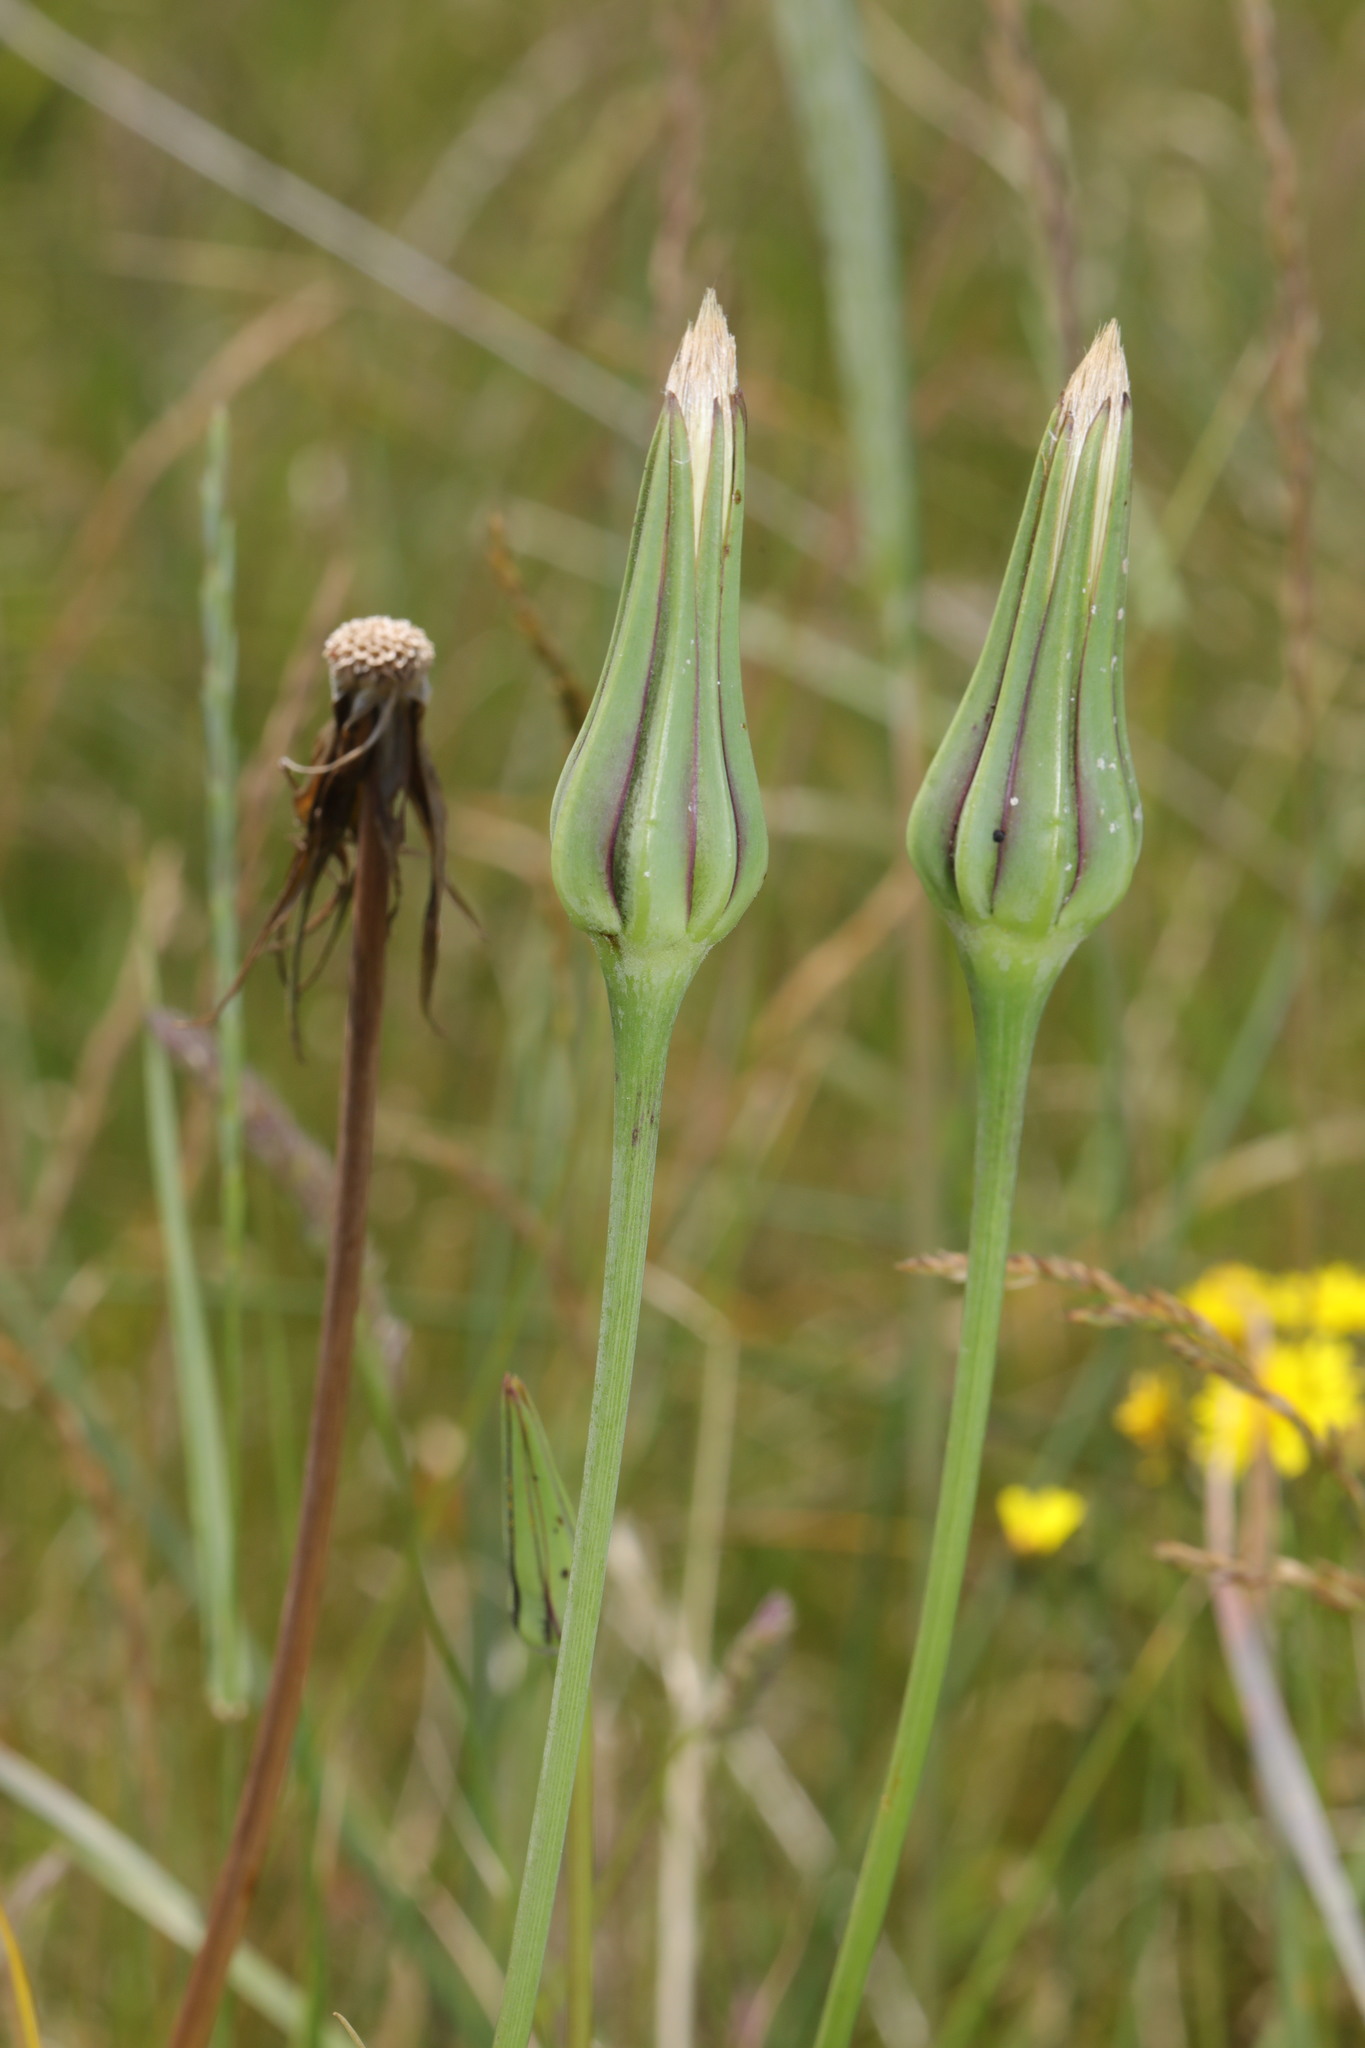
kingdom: Plantae
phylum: Tracheophyta
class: Magnoliopsida
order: Asterales
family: Asteraceae
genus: Tragopogon
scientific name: Tragopogon pratensis
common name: Goat's-beard
